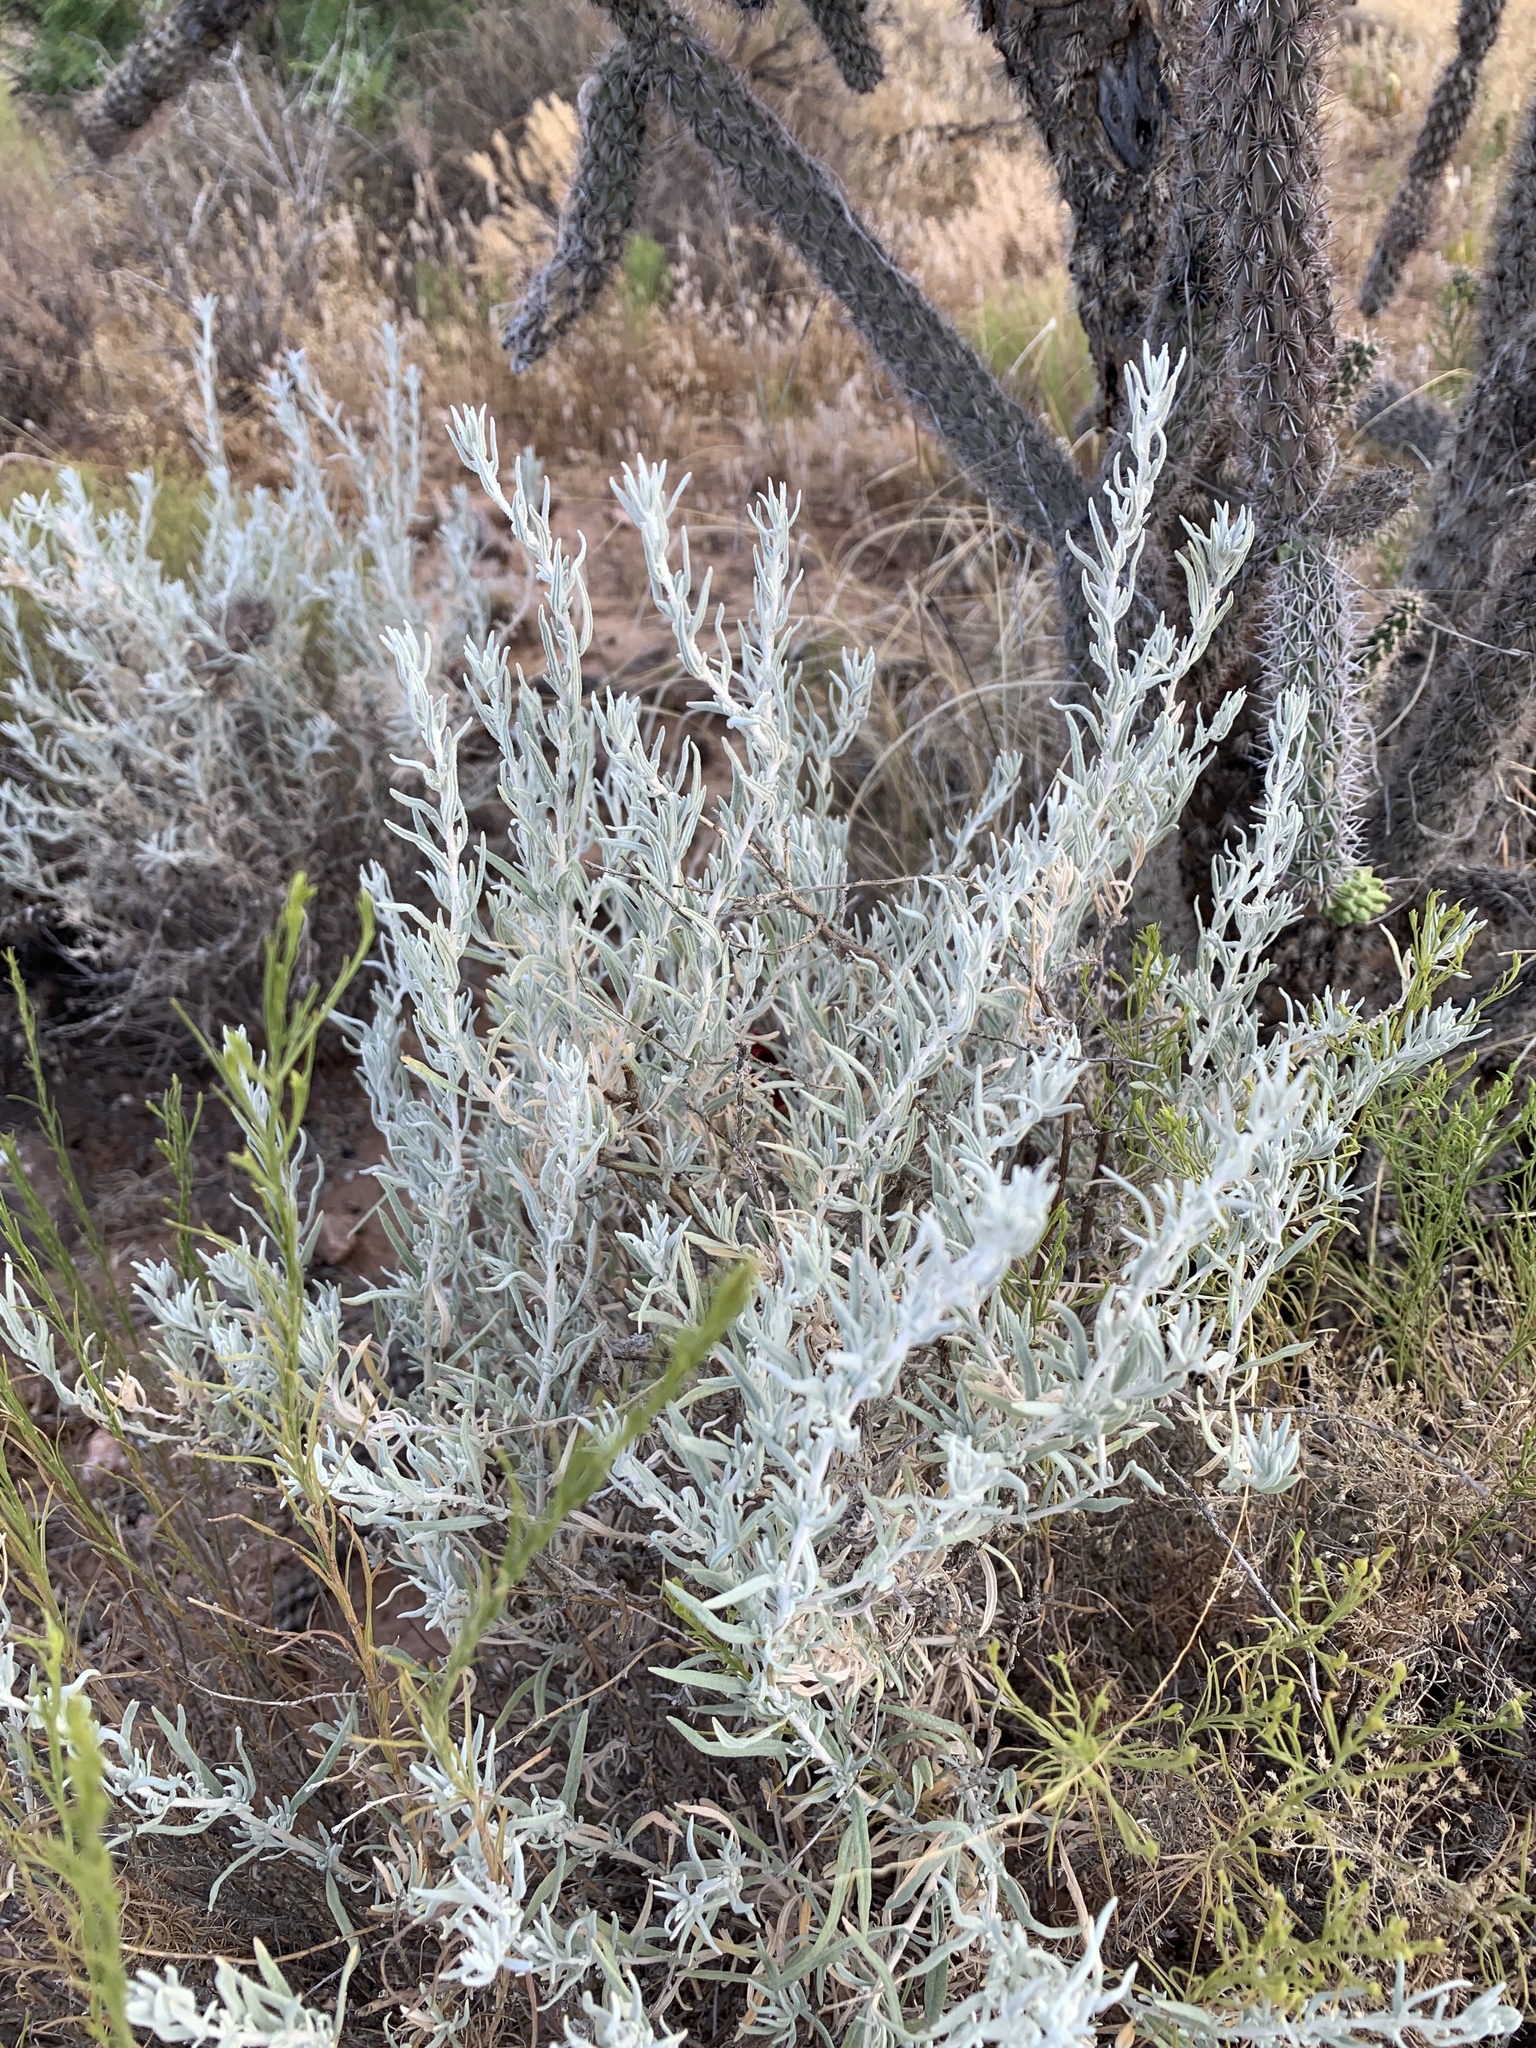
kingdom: Plantae
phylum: Tracheophyta
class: Magnoliopsida
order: Caryophyllales
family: Amaranthaceae
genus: Krascheninnikovia
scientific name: Krascheninnikovia lanata
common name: Winterfat
